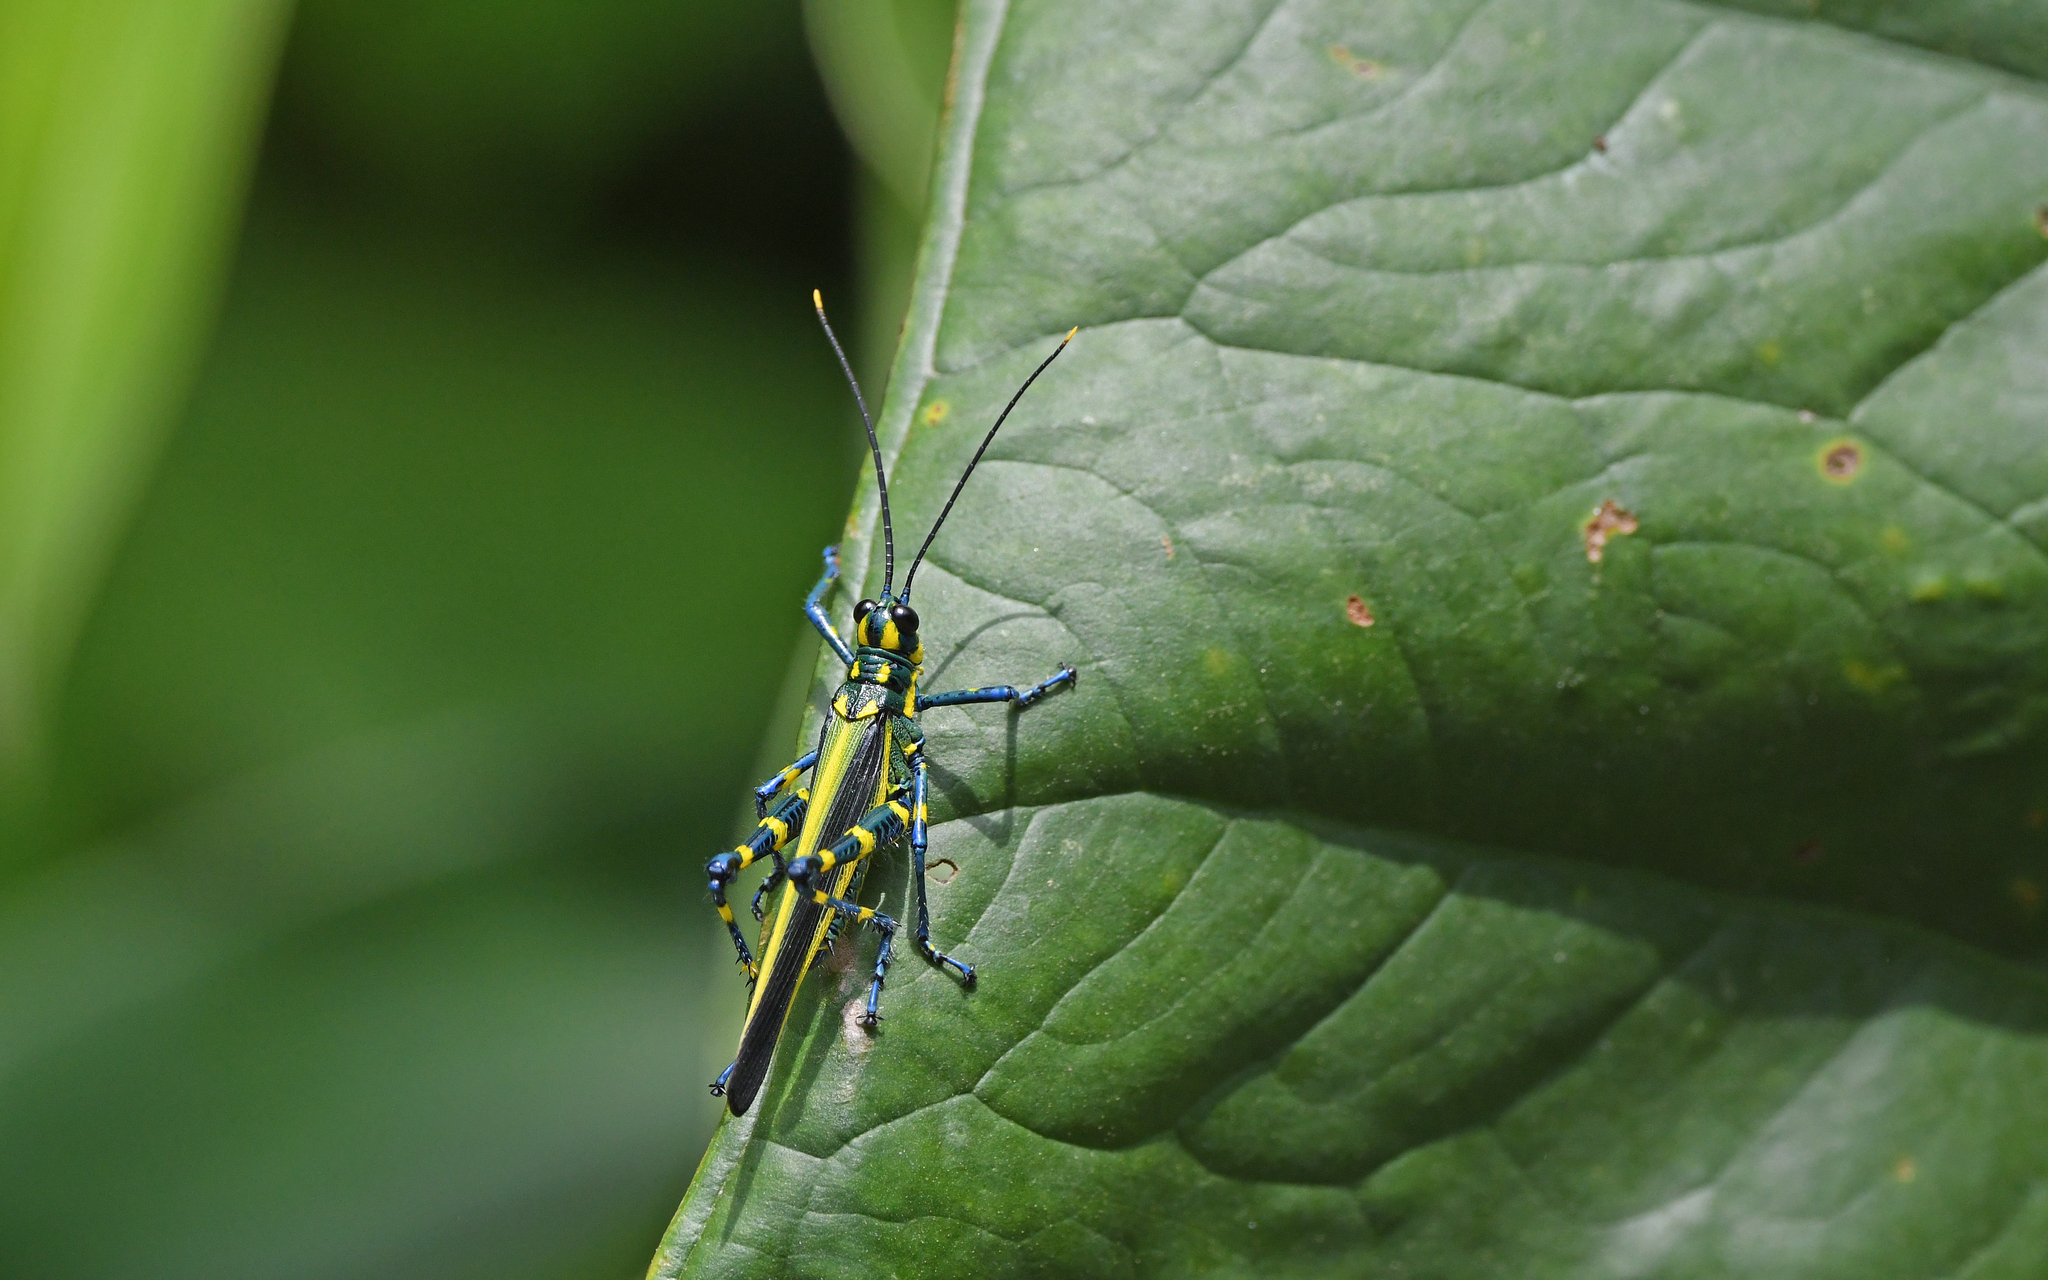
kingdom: Animalia
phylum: Arthropoda
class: Insecta
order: Orthoptera
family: Romaleidae
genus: Chromacris
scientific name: Chromacris peruviana
